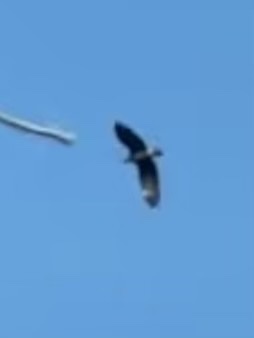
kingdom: Animalia
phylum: Chordata
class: Aves
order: Accipitriformes
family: Accipitridae
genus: Haliaeetus
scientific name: Haliaeetus leucocephalus
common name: Bald eagle
